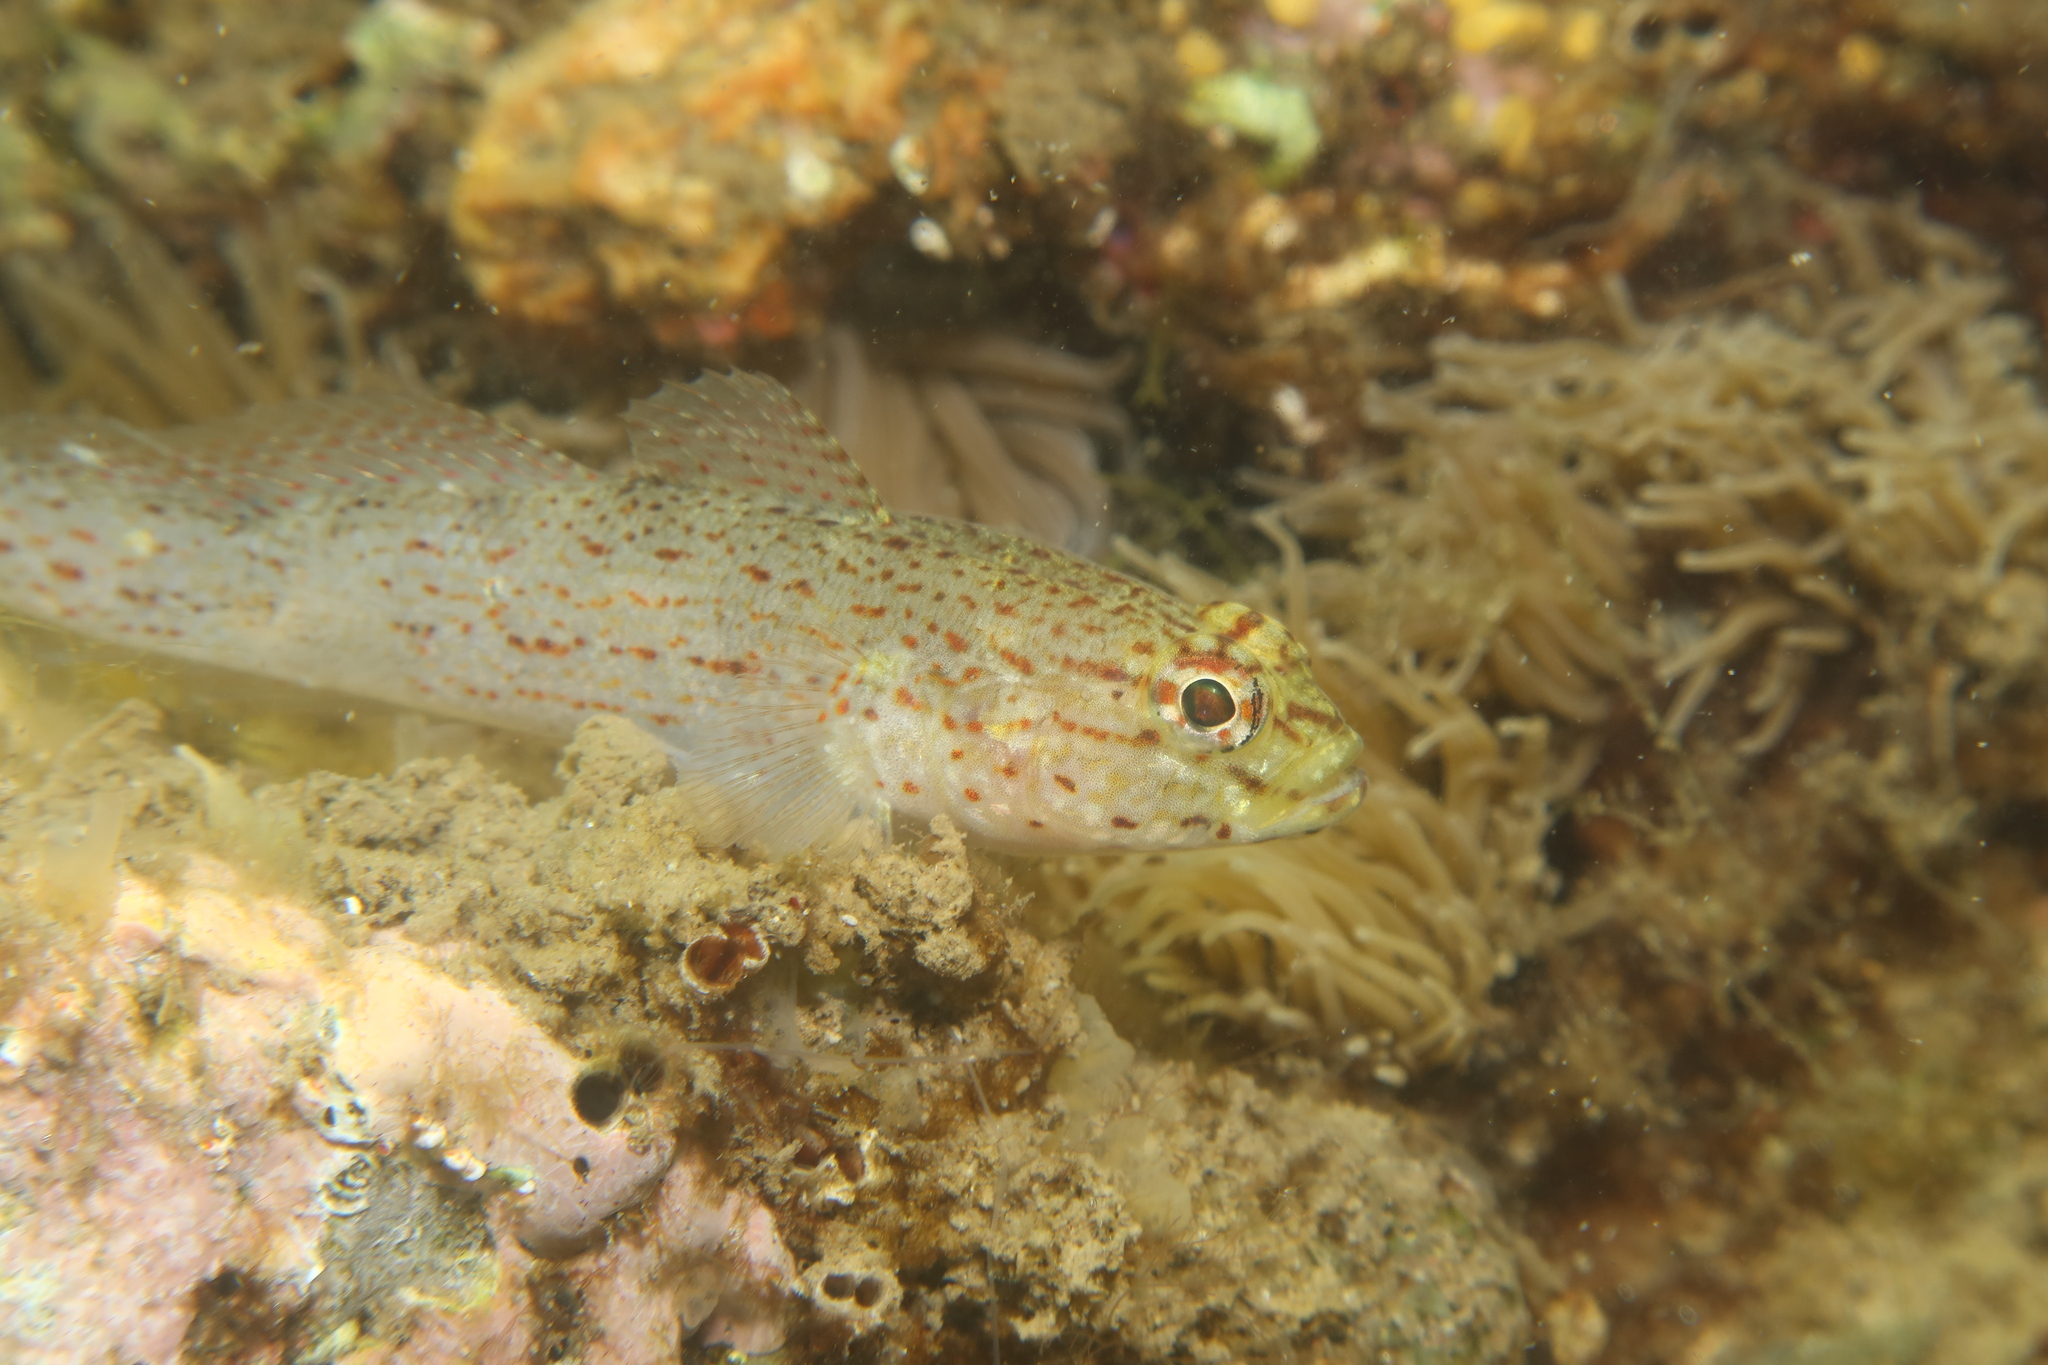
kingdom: Animalia
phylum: Chordata
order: Perciformes
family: Gobiidae
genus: Gobius
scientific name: Gobius xanthocephalus
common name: Golden goby
